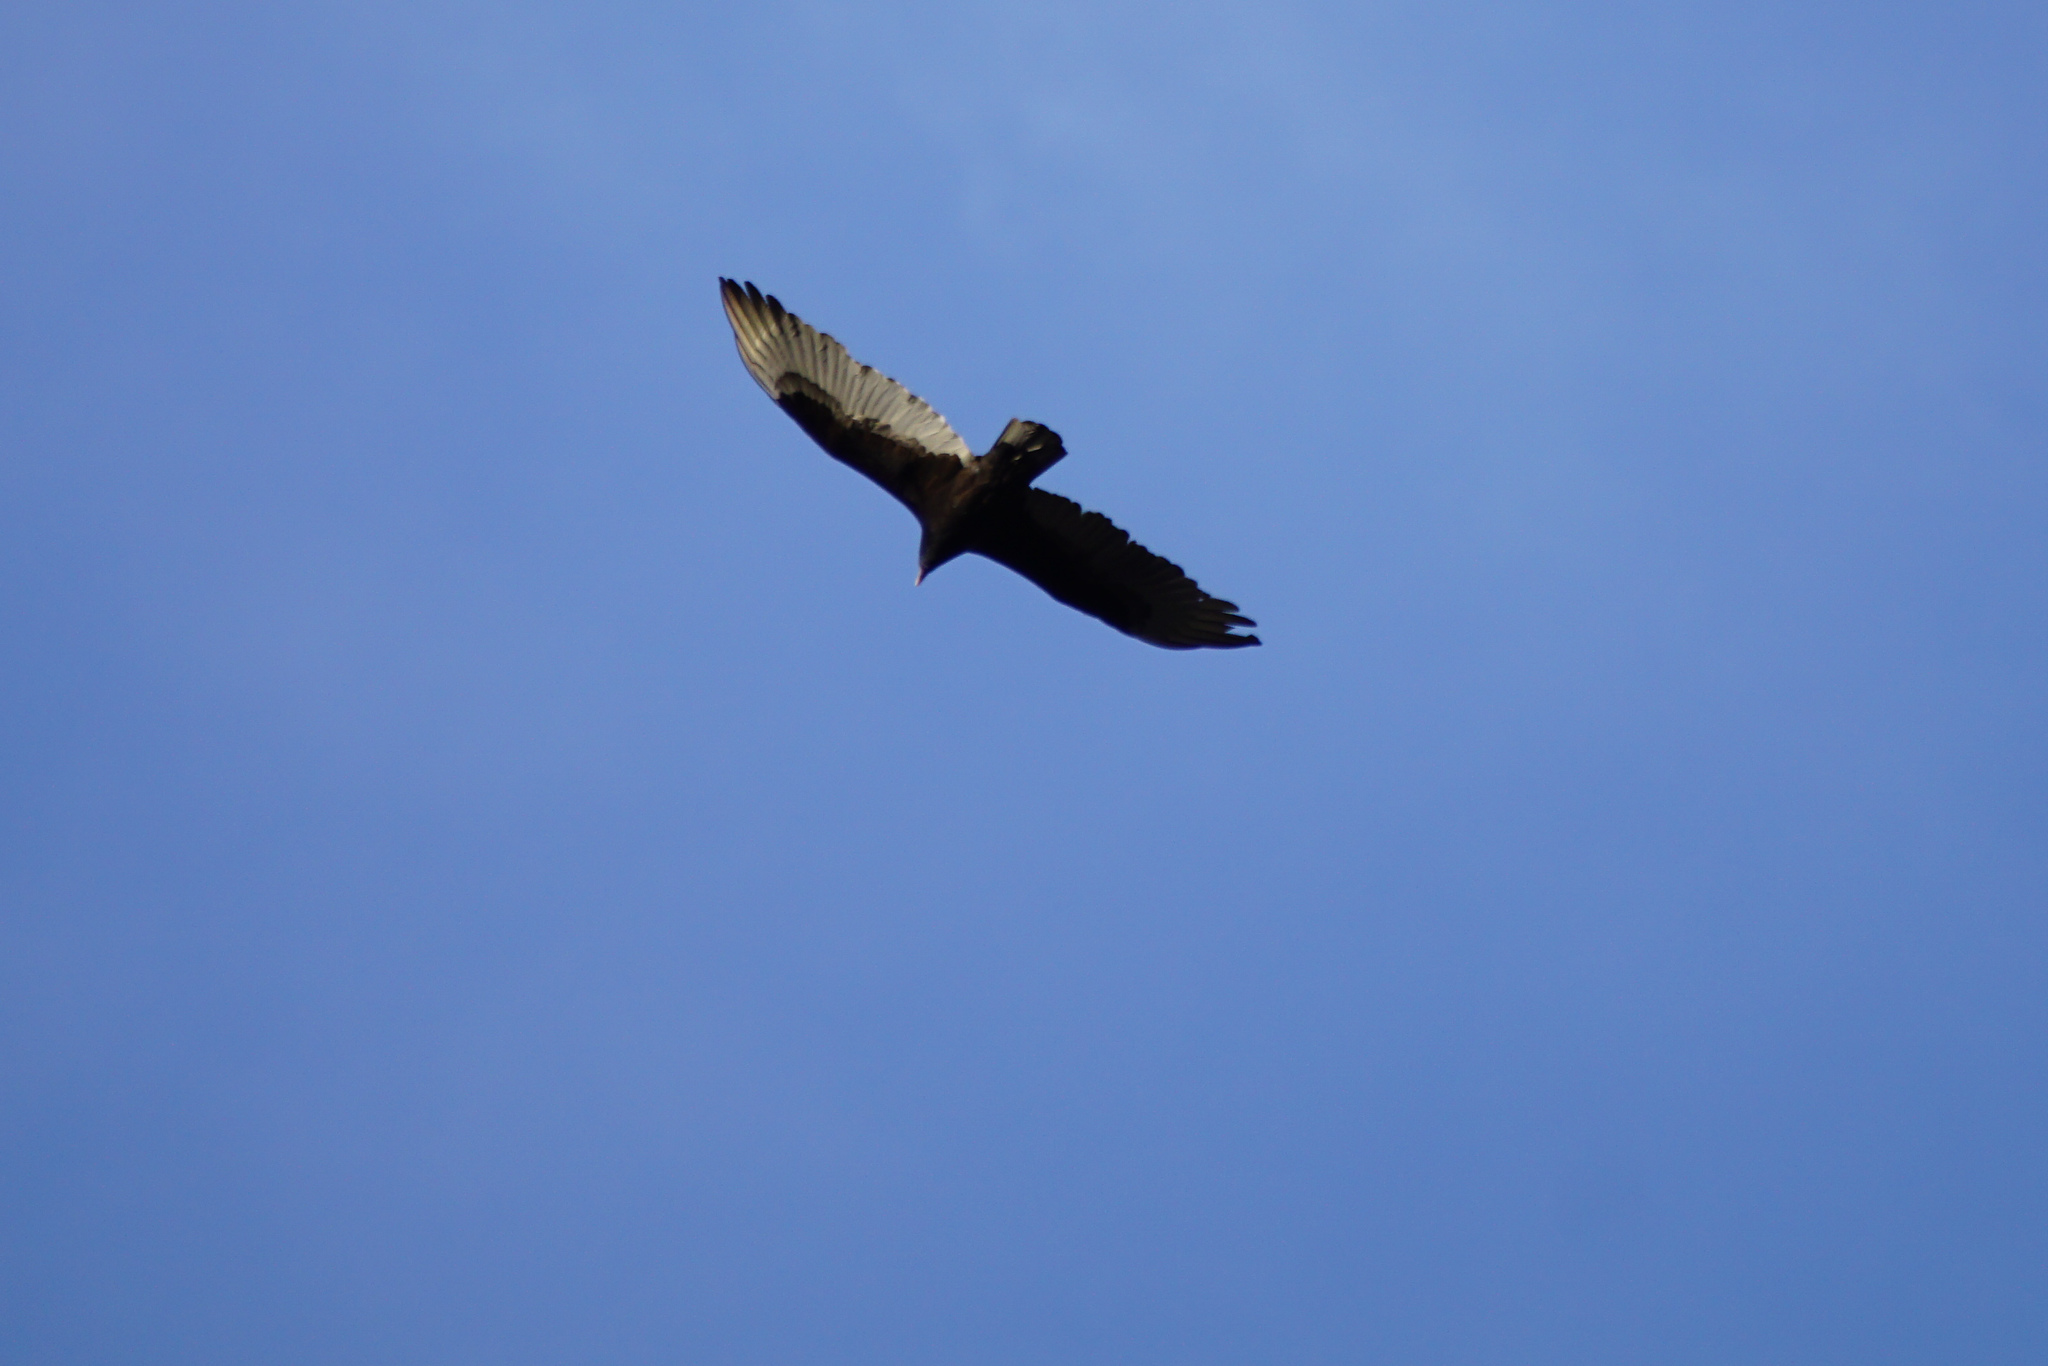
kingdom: Animalia
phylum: Chordata
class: Aves
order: Accipitriformes
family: Cathartidae
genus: Cathartes
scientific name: Cathartes aura
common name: Turkey vulture
